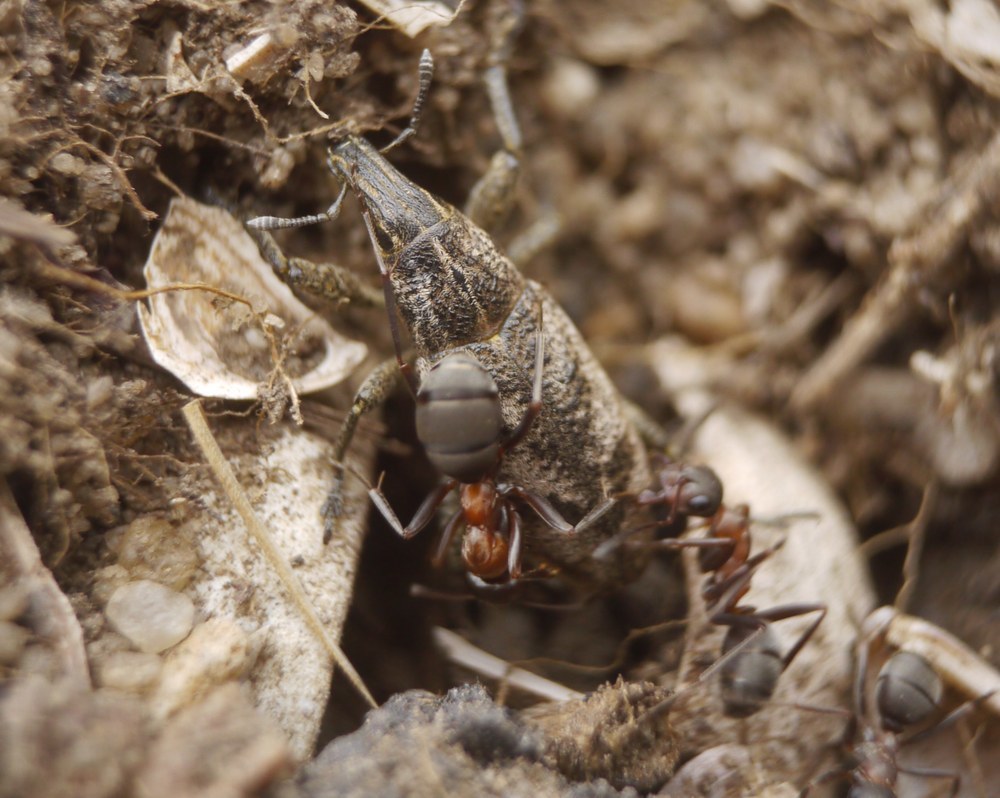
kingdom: Animalia
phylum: Arthropoda
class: Insecta
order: Coleoptera
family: Curculionidae
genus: Cleonis
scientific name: Cleonis pigra
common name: Large thistle weevil
